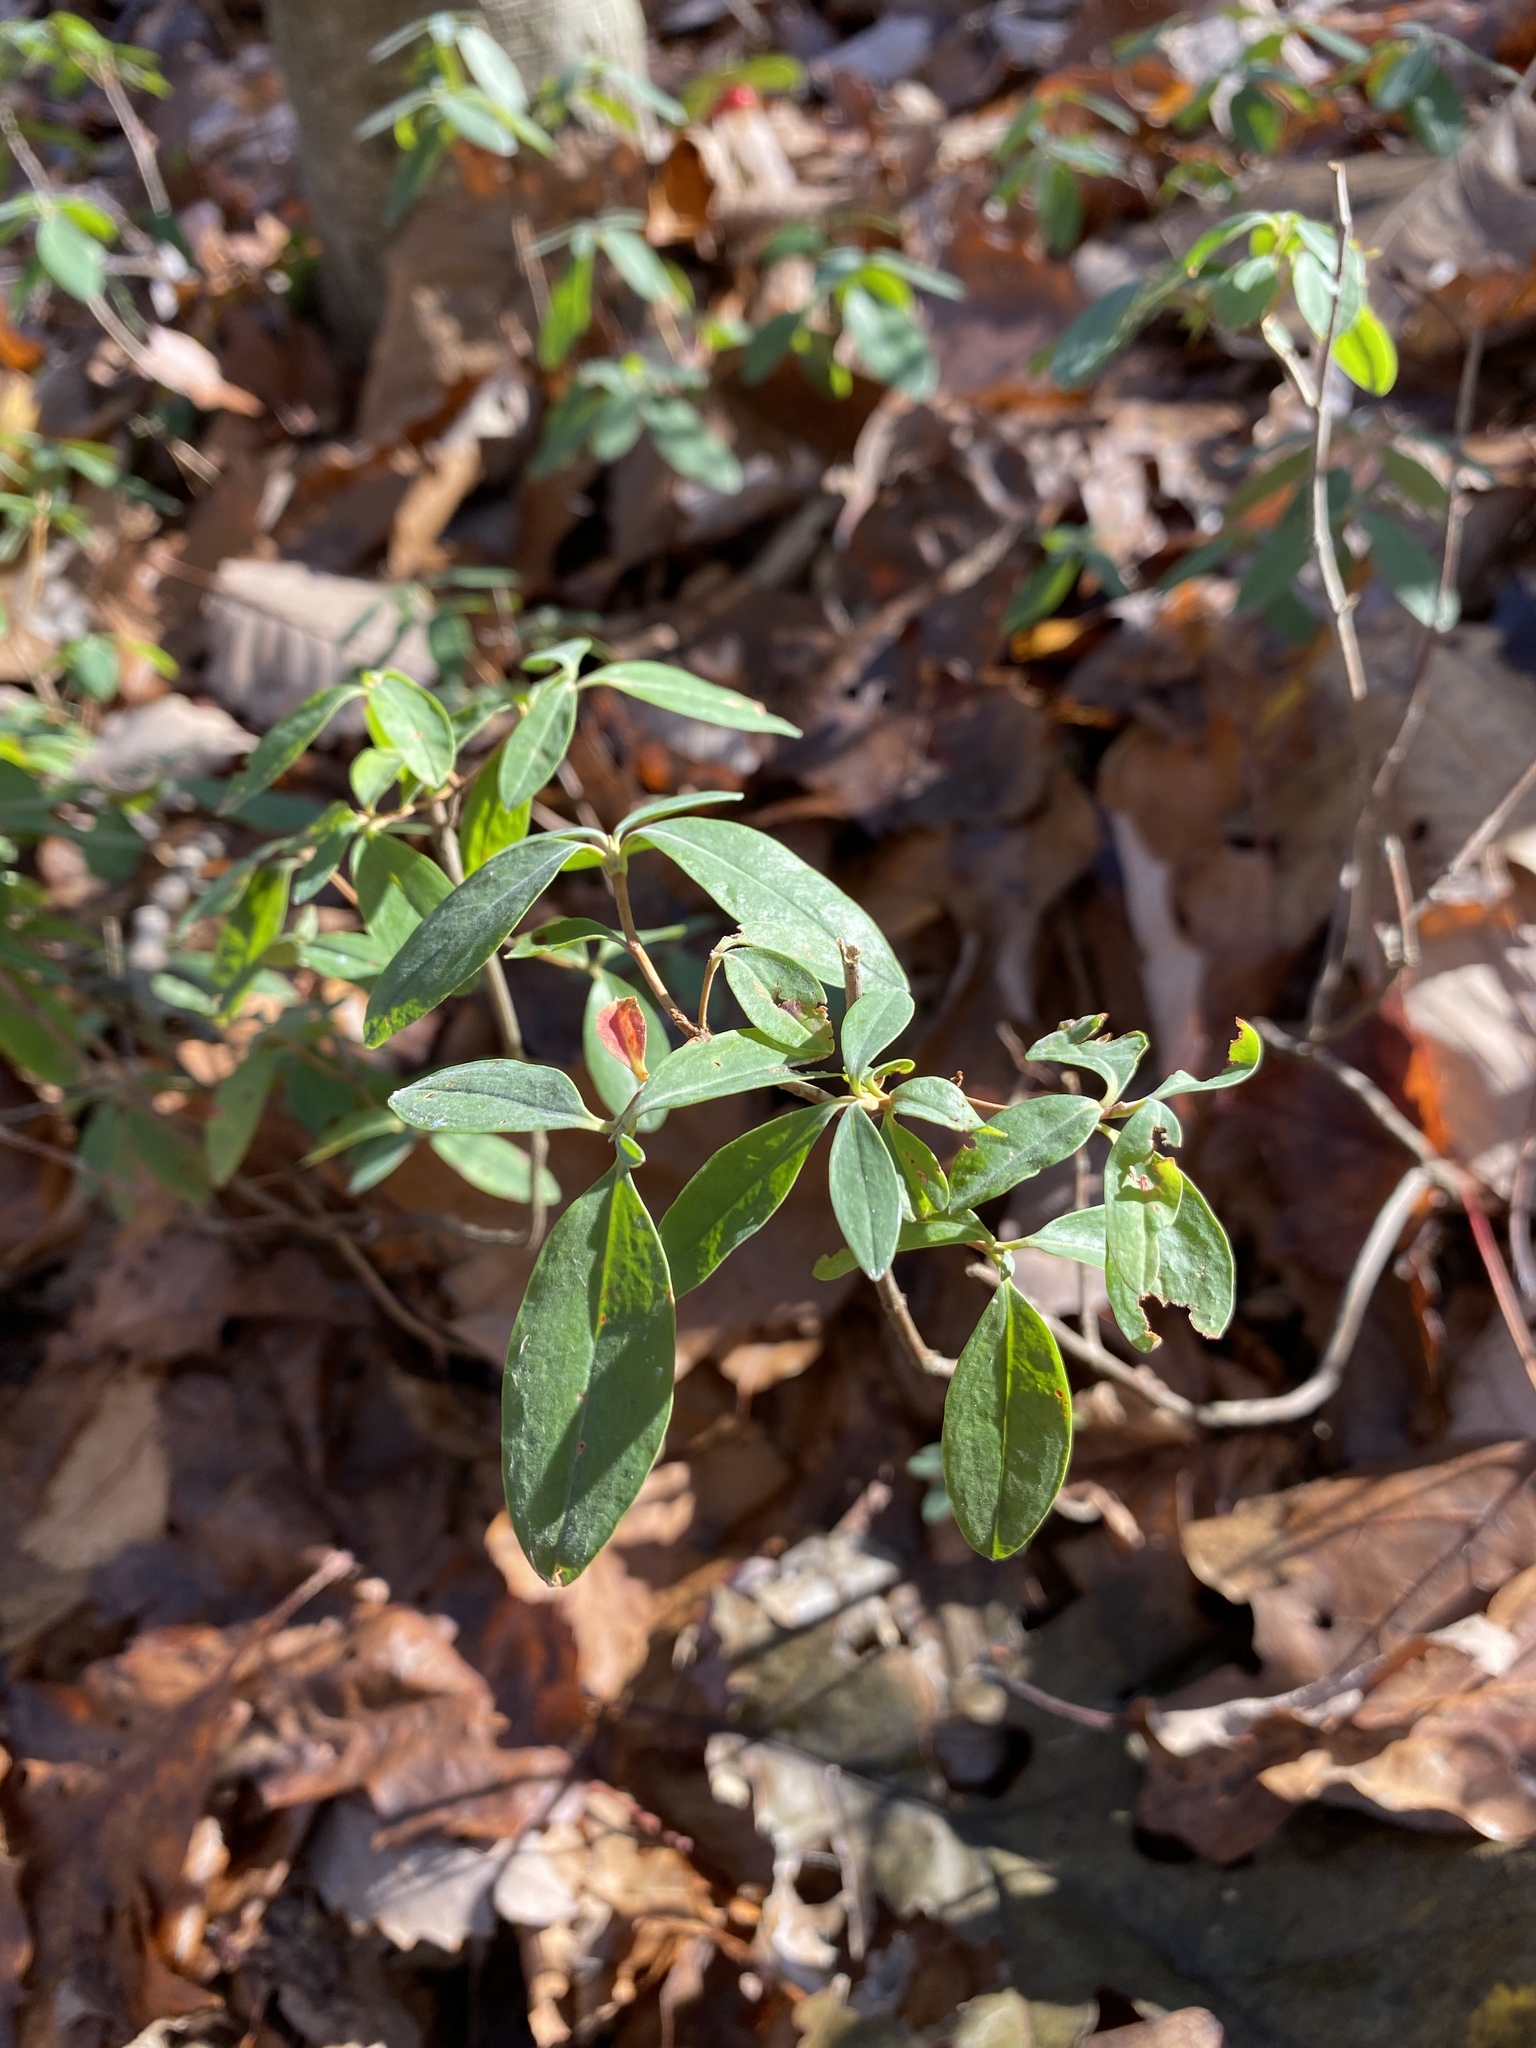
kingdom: Plantae
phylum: Tracheophyta
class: Magnoliopsida
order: Ericales
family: Ericaceae
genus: Kalmia
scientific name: Kalmia angustifolia
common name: Sheep-laurel
